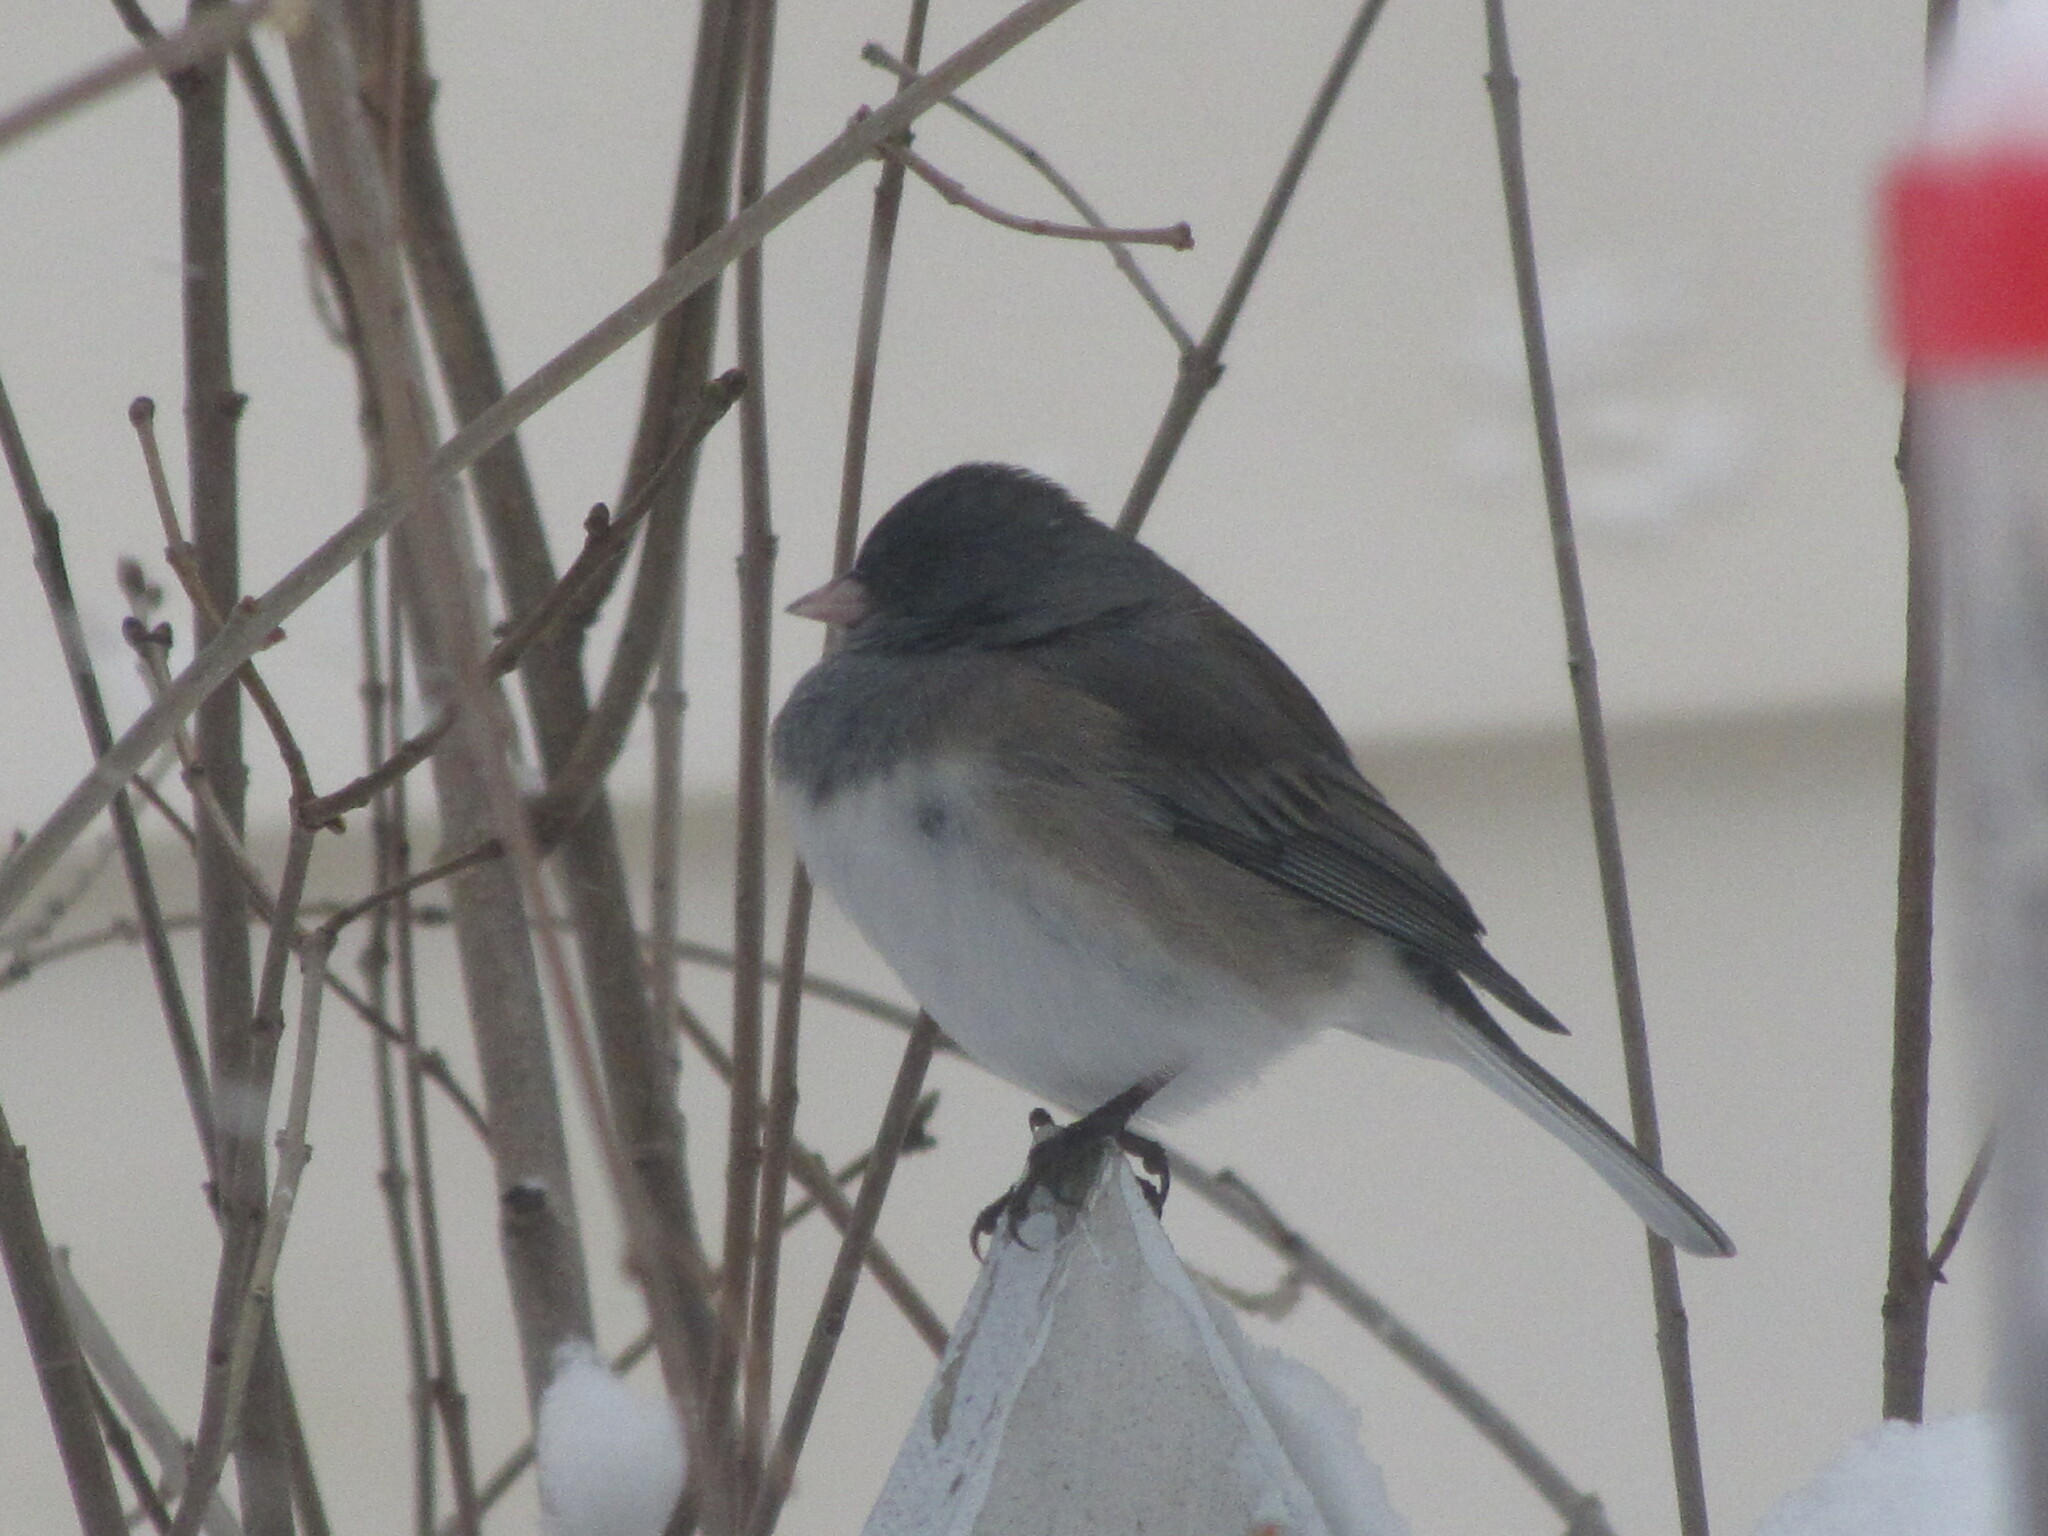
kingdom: Animalia
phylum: Chordata
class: Aves
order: Passeriformes
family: Passerellidae
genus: Junco
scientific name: Junco hyemalis
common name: Dark-eyed junco
